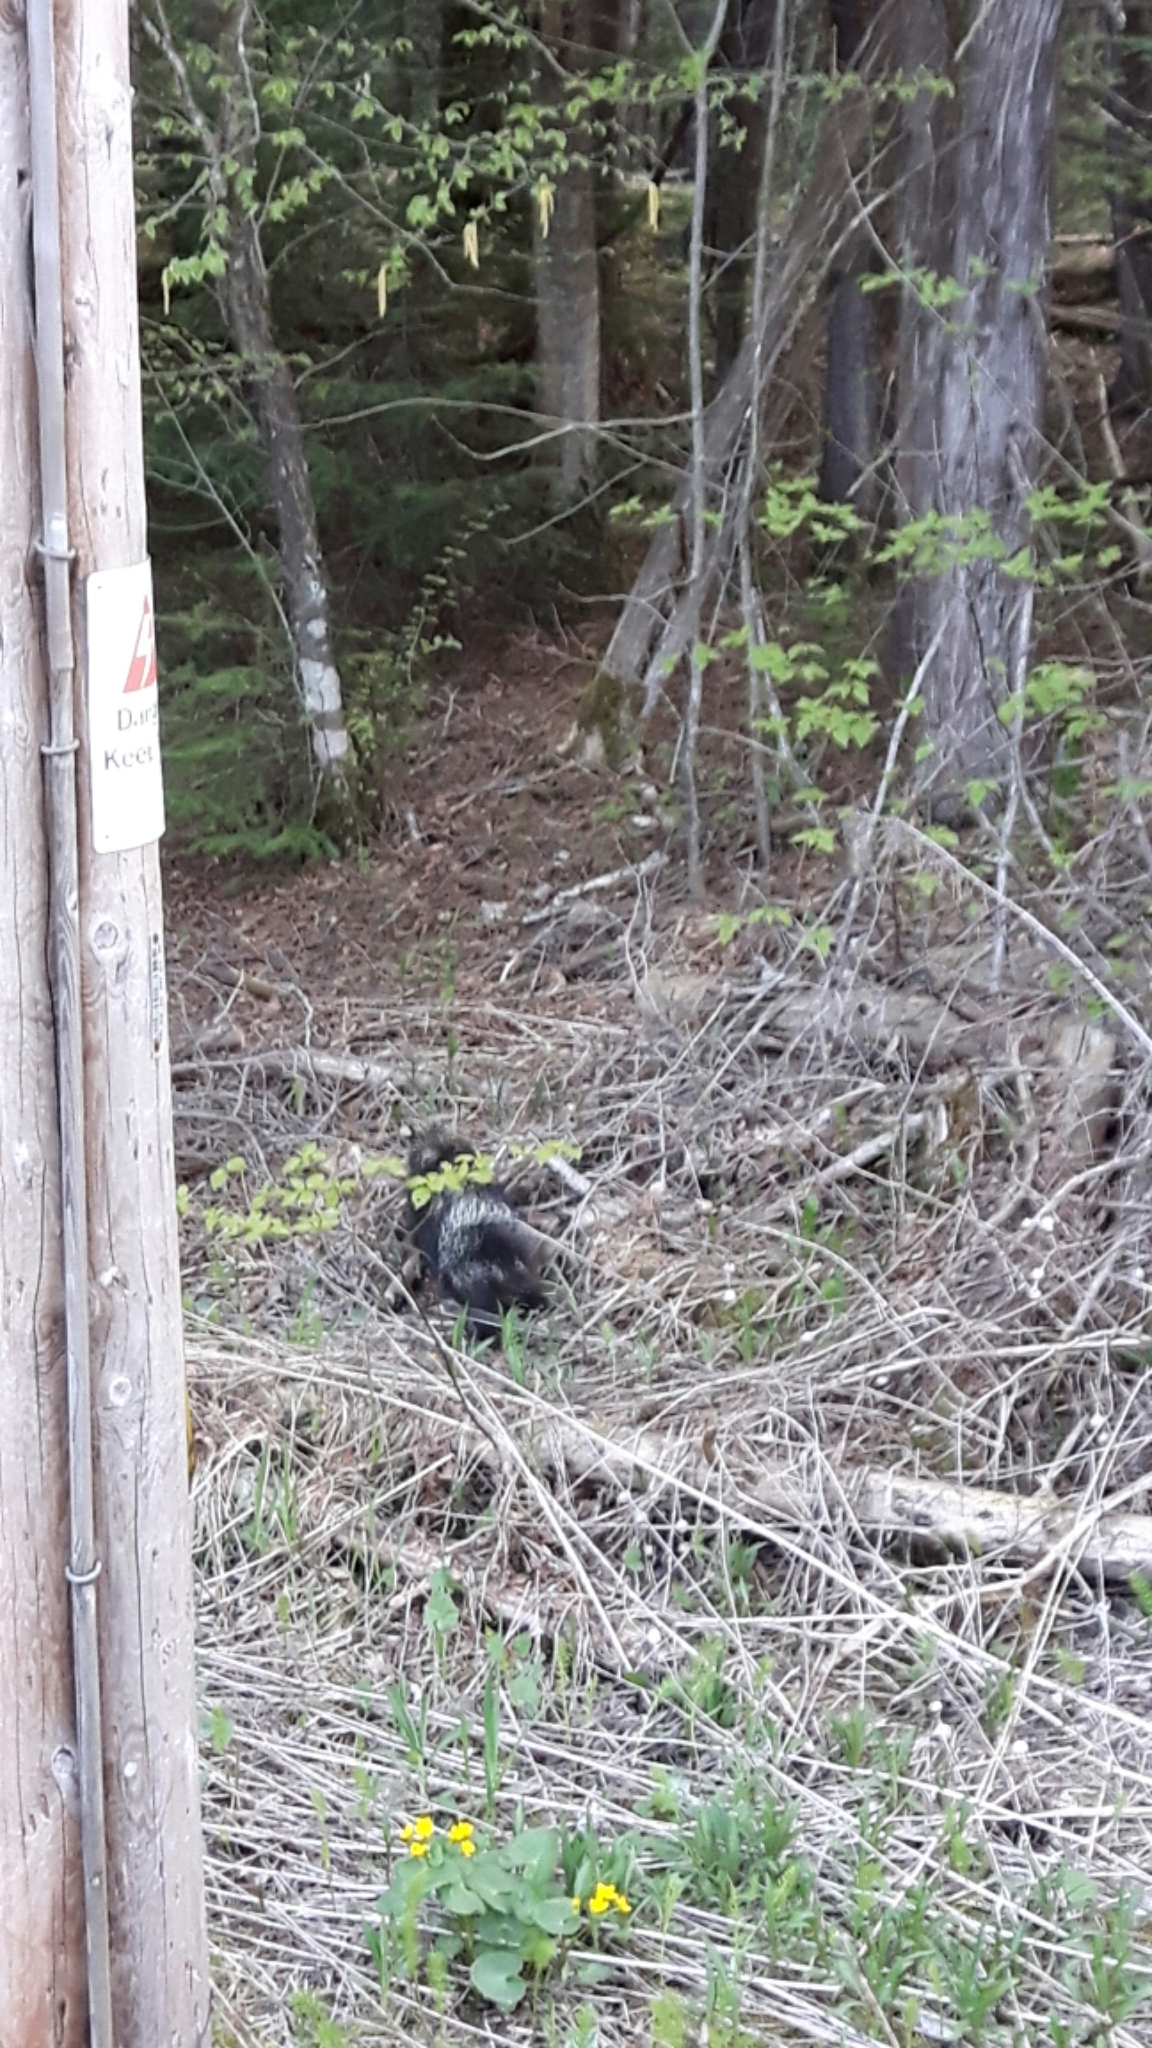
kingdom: Animalia
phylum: Chordata
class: Mammalia
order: Rodentia
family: Erethizontidae
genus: Erethizon
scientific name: Erethizon dorsatus
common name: North american porcupine
